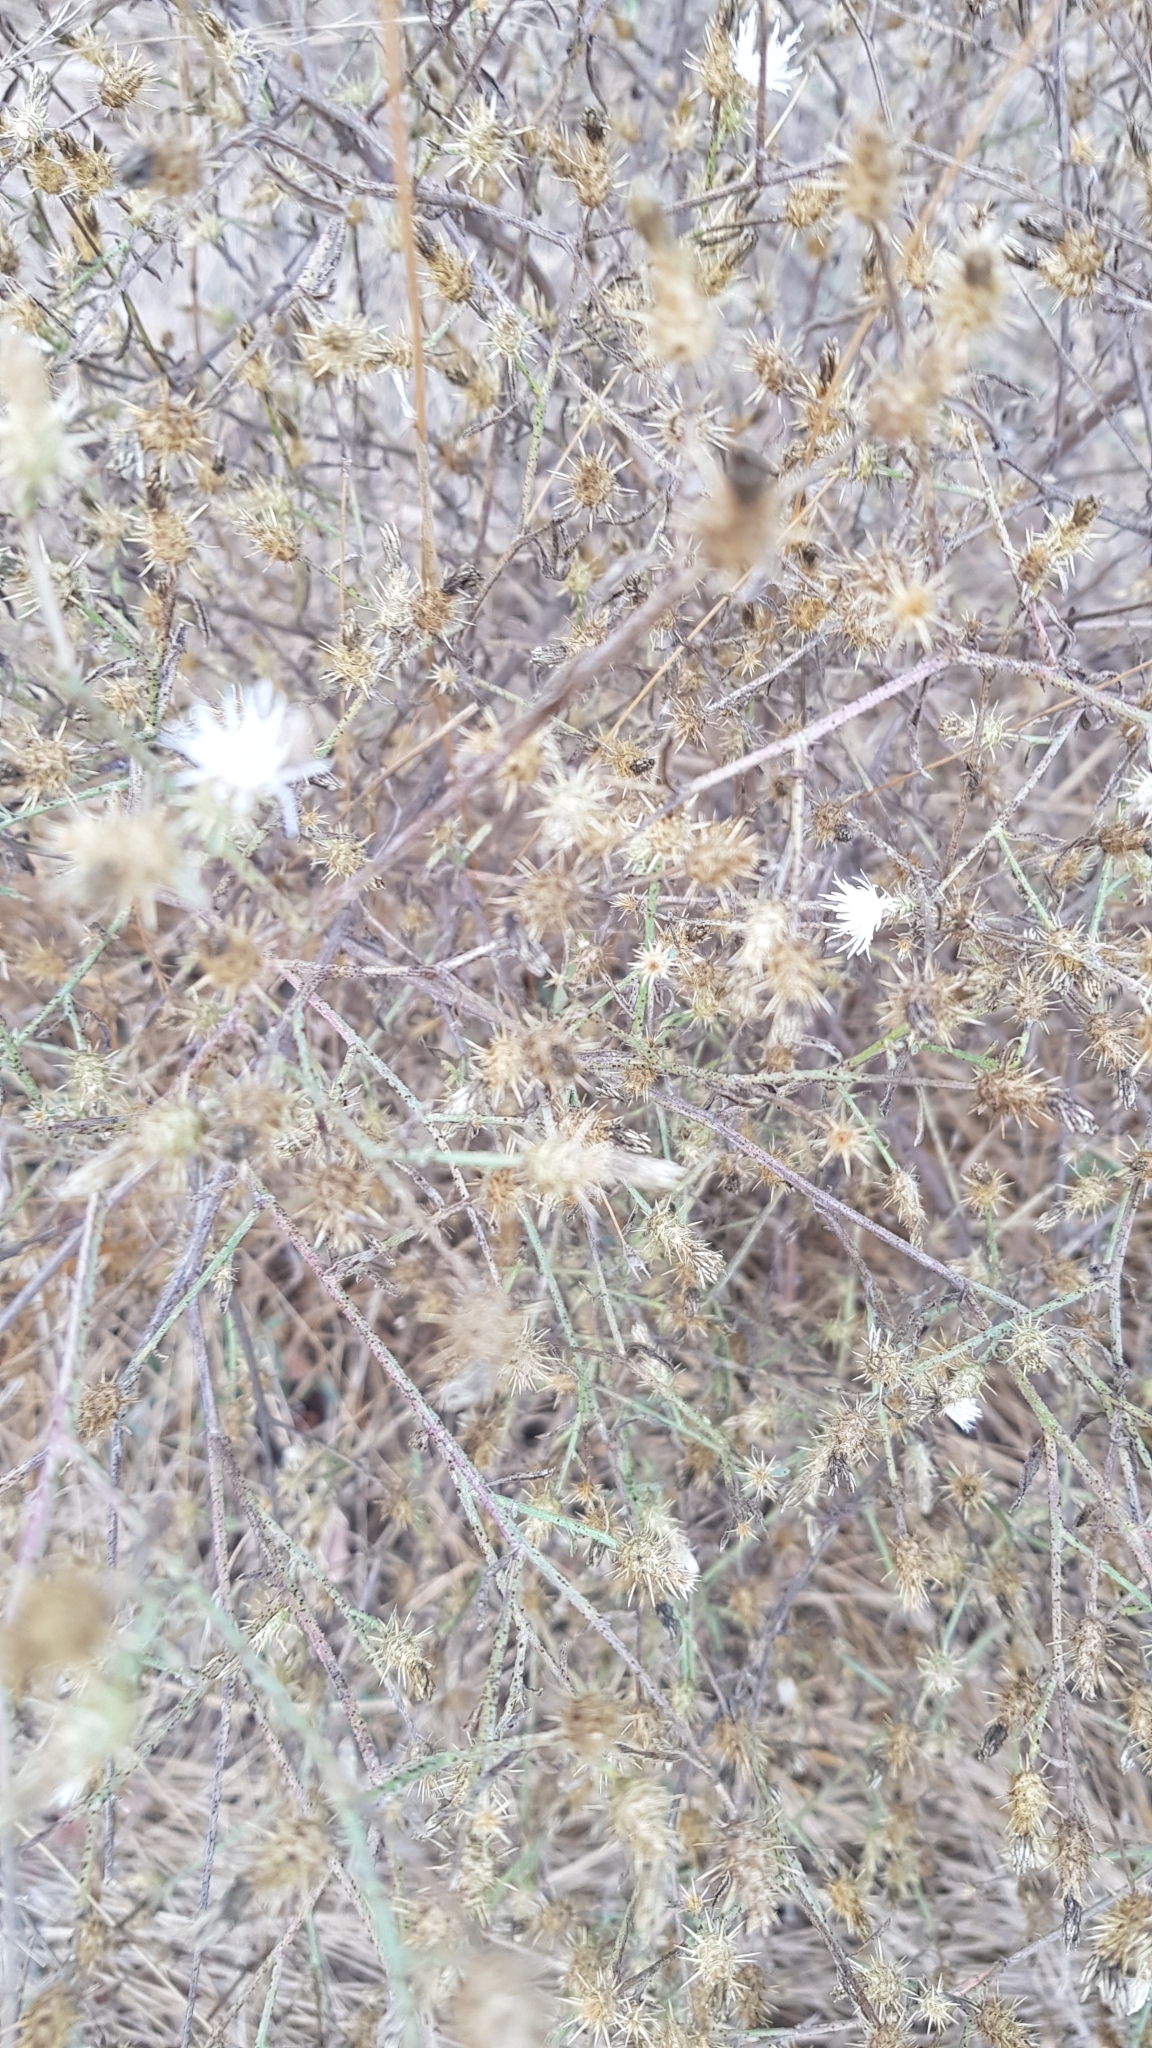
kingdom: Plantae
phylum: Tracheophyta
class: Magnoliopsida
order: Asterales
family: Asteraceae
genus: Centaurea
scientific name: Centaurea diffusa
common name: Diffuse knapweed
